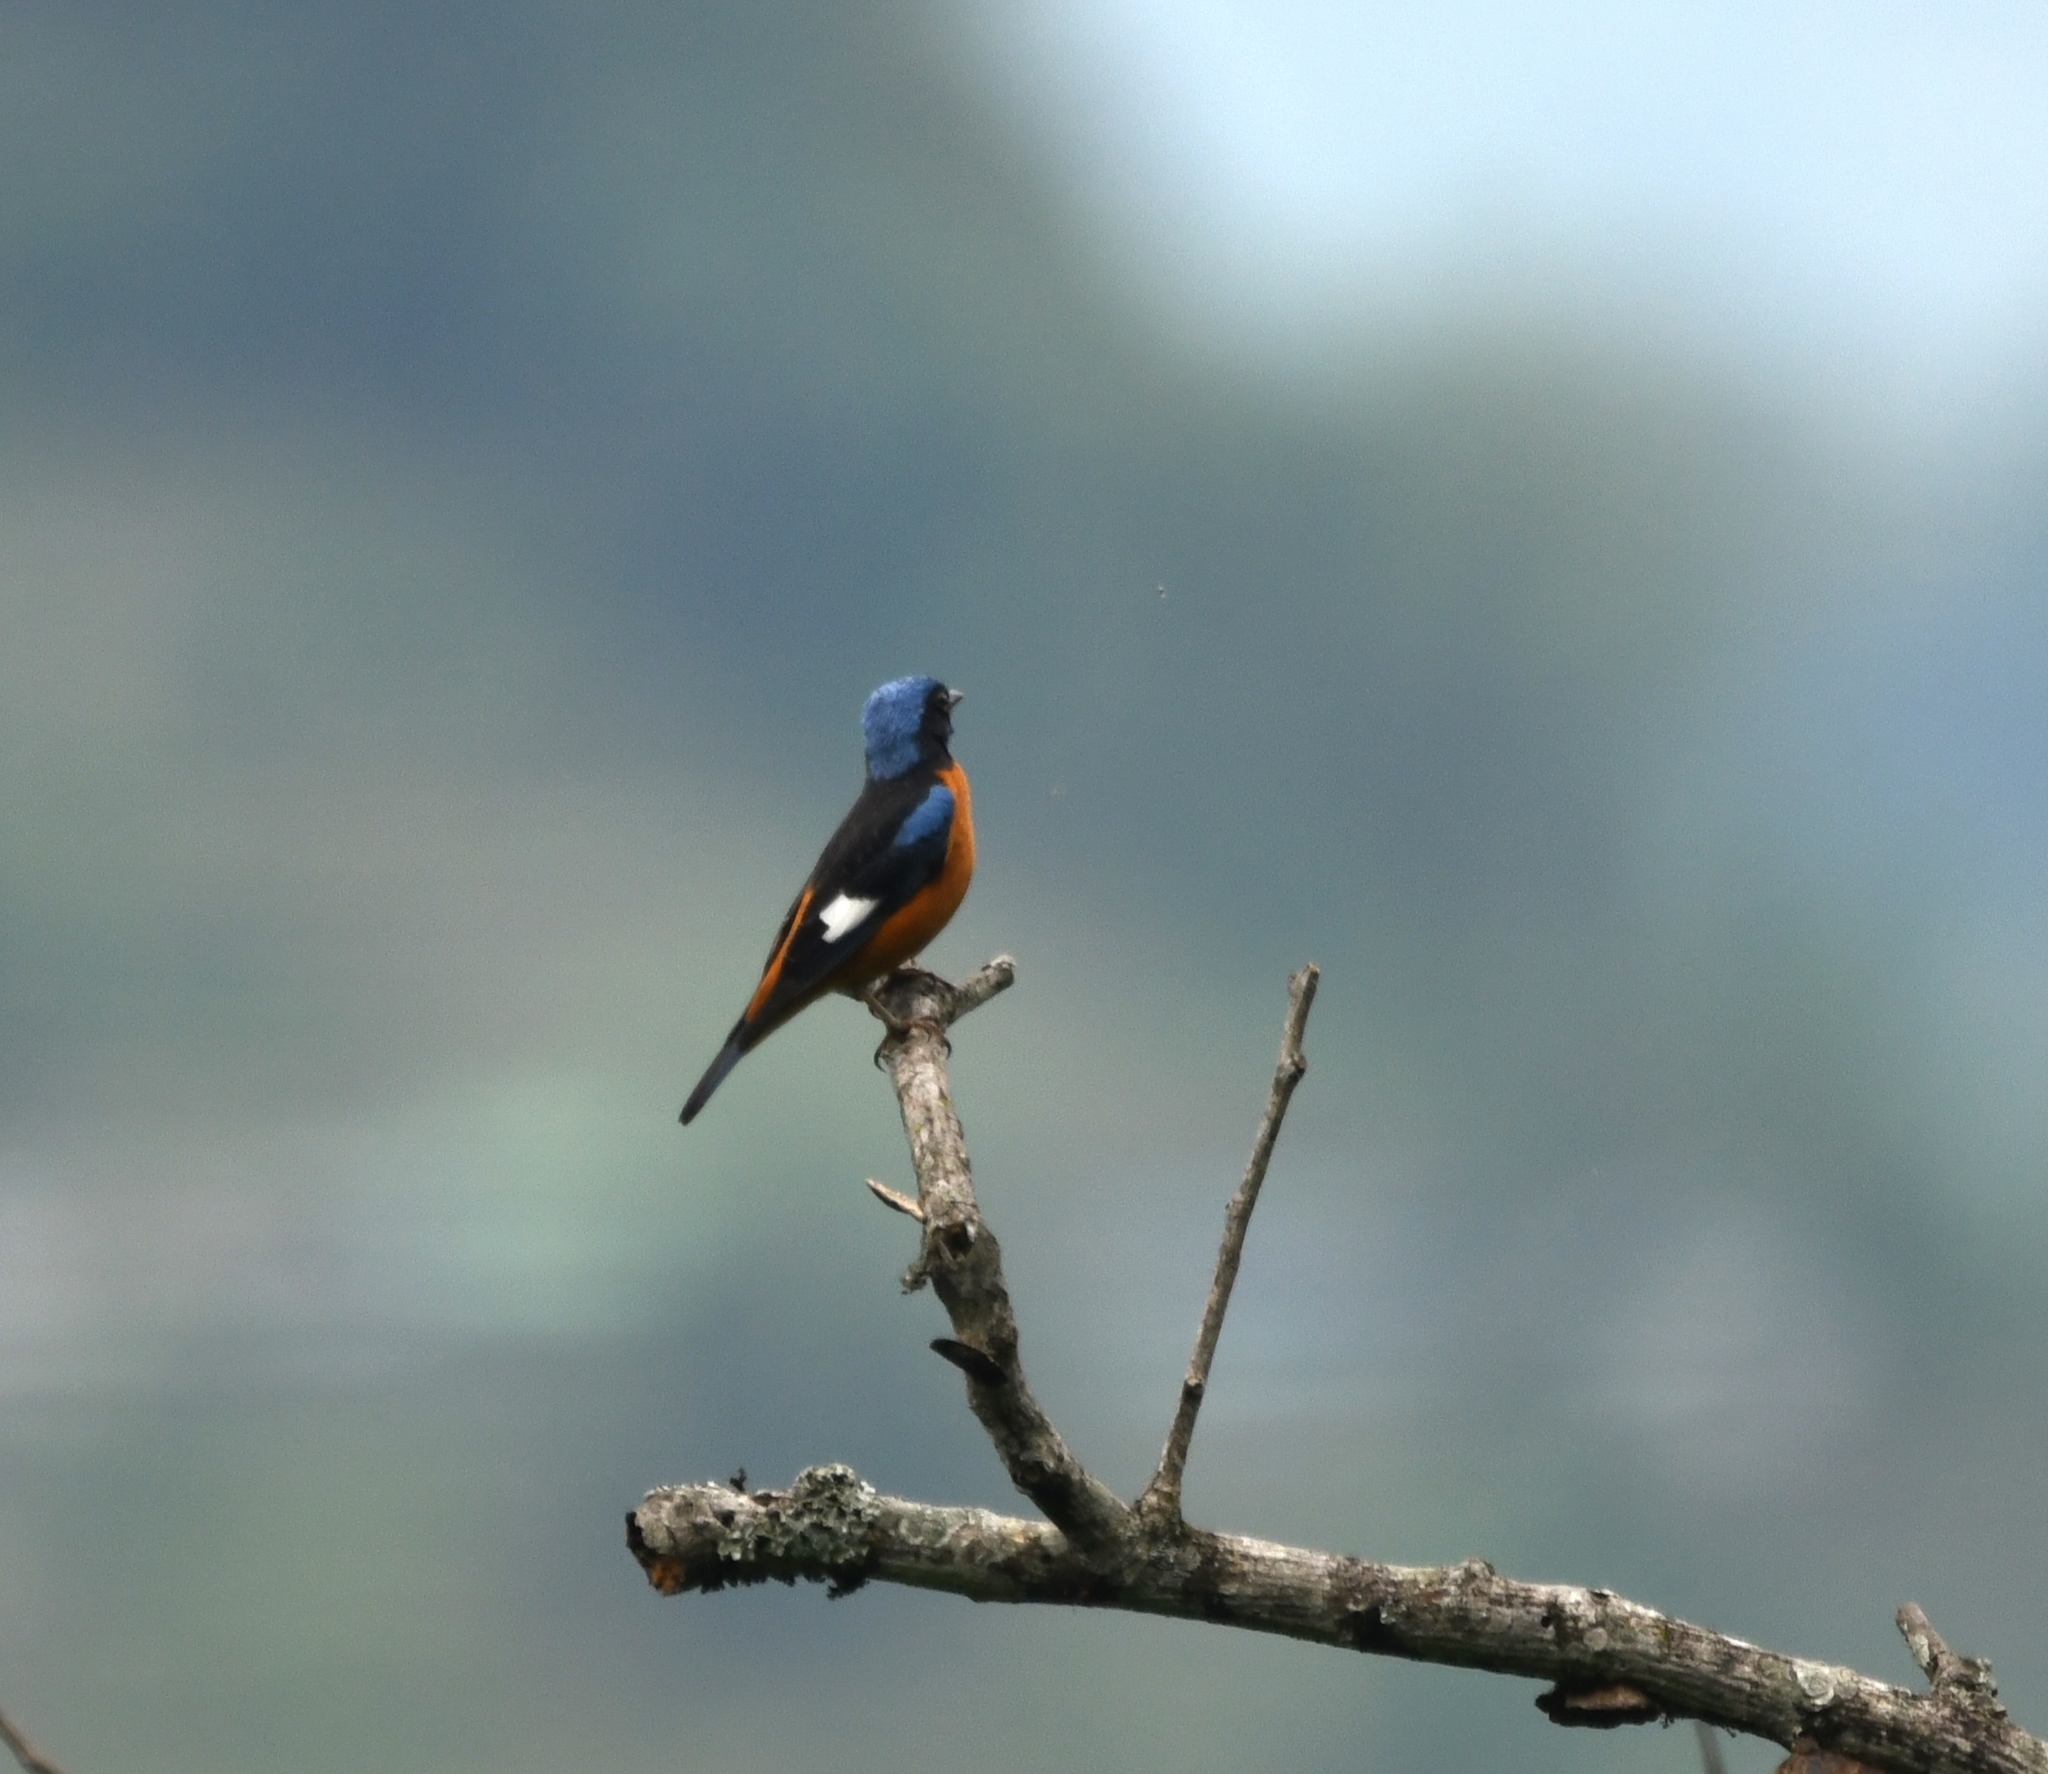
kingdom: Animalia
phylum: Chordata
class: Aves
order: Passeriformes
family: Muscicapidae
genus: Monticola
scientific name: Monticola cinclorhynchus
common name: Blue-capped rock thrush
